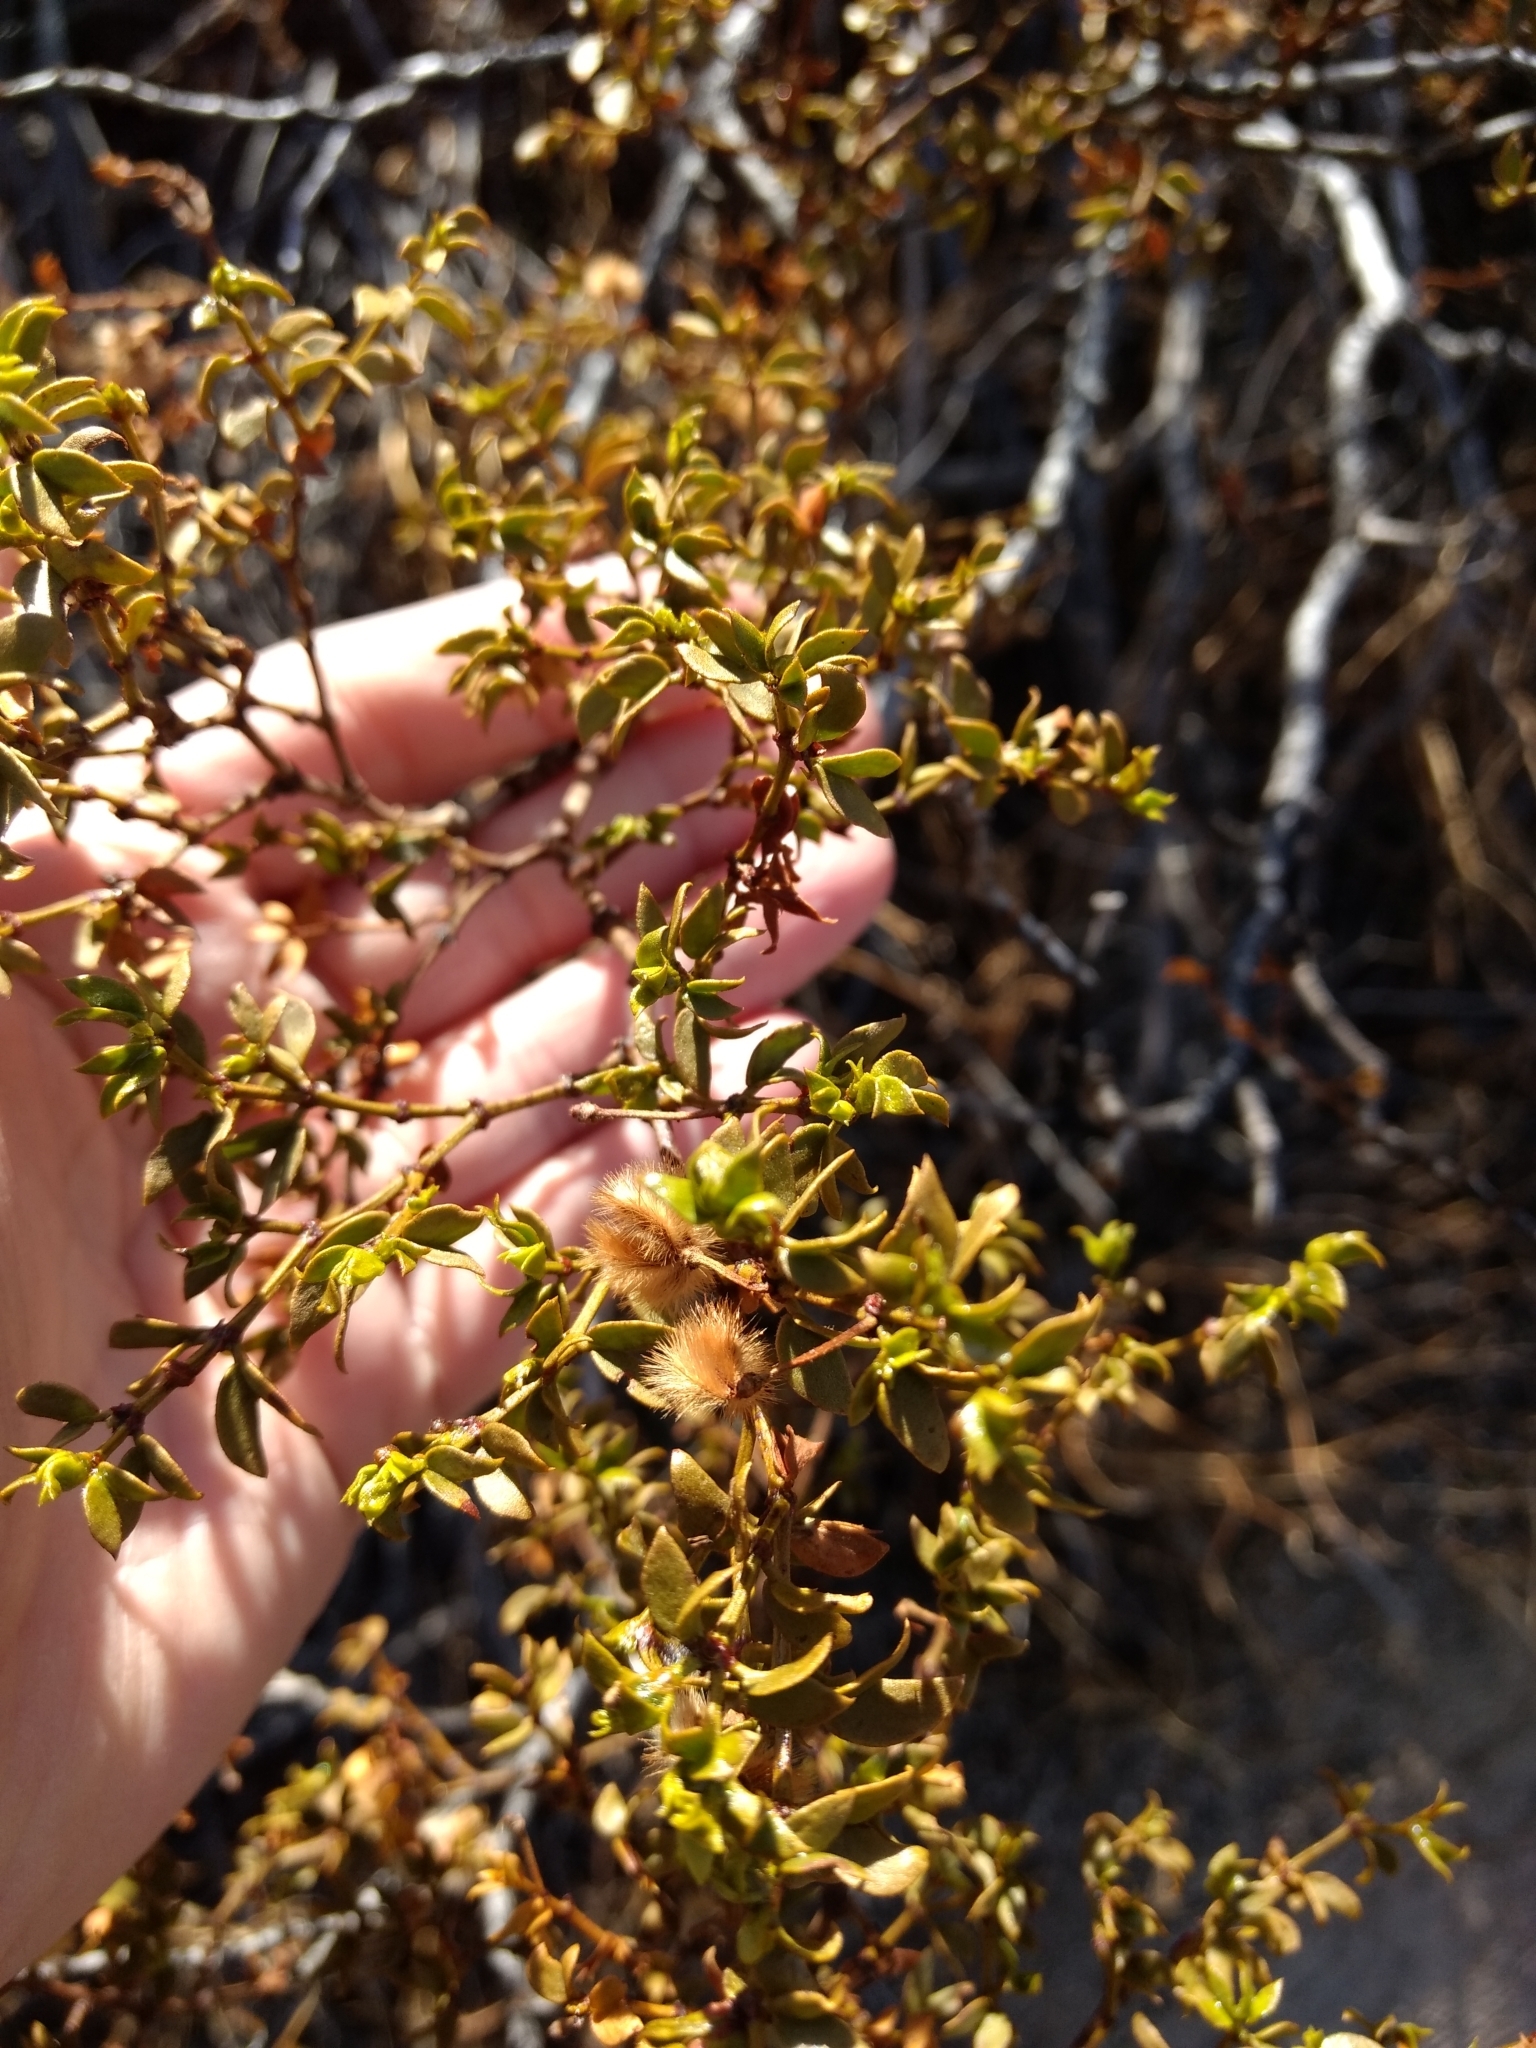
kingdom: Plantae
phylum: Tracheophyta
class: Magnoliopsida
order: Zygophyllales
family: Zygophyllaceae
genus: Larrea
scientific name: Larrea tridentata
